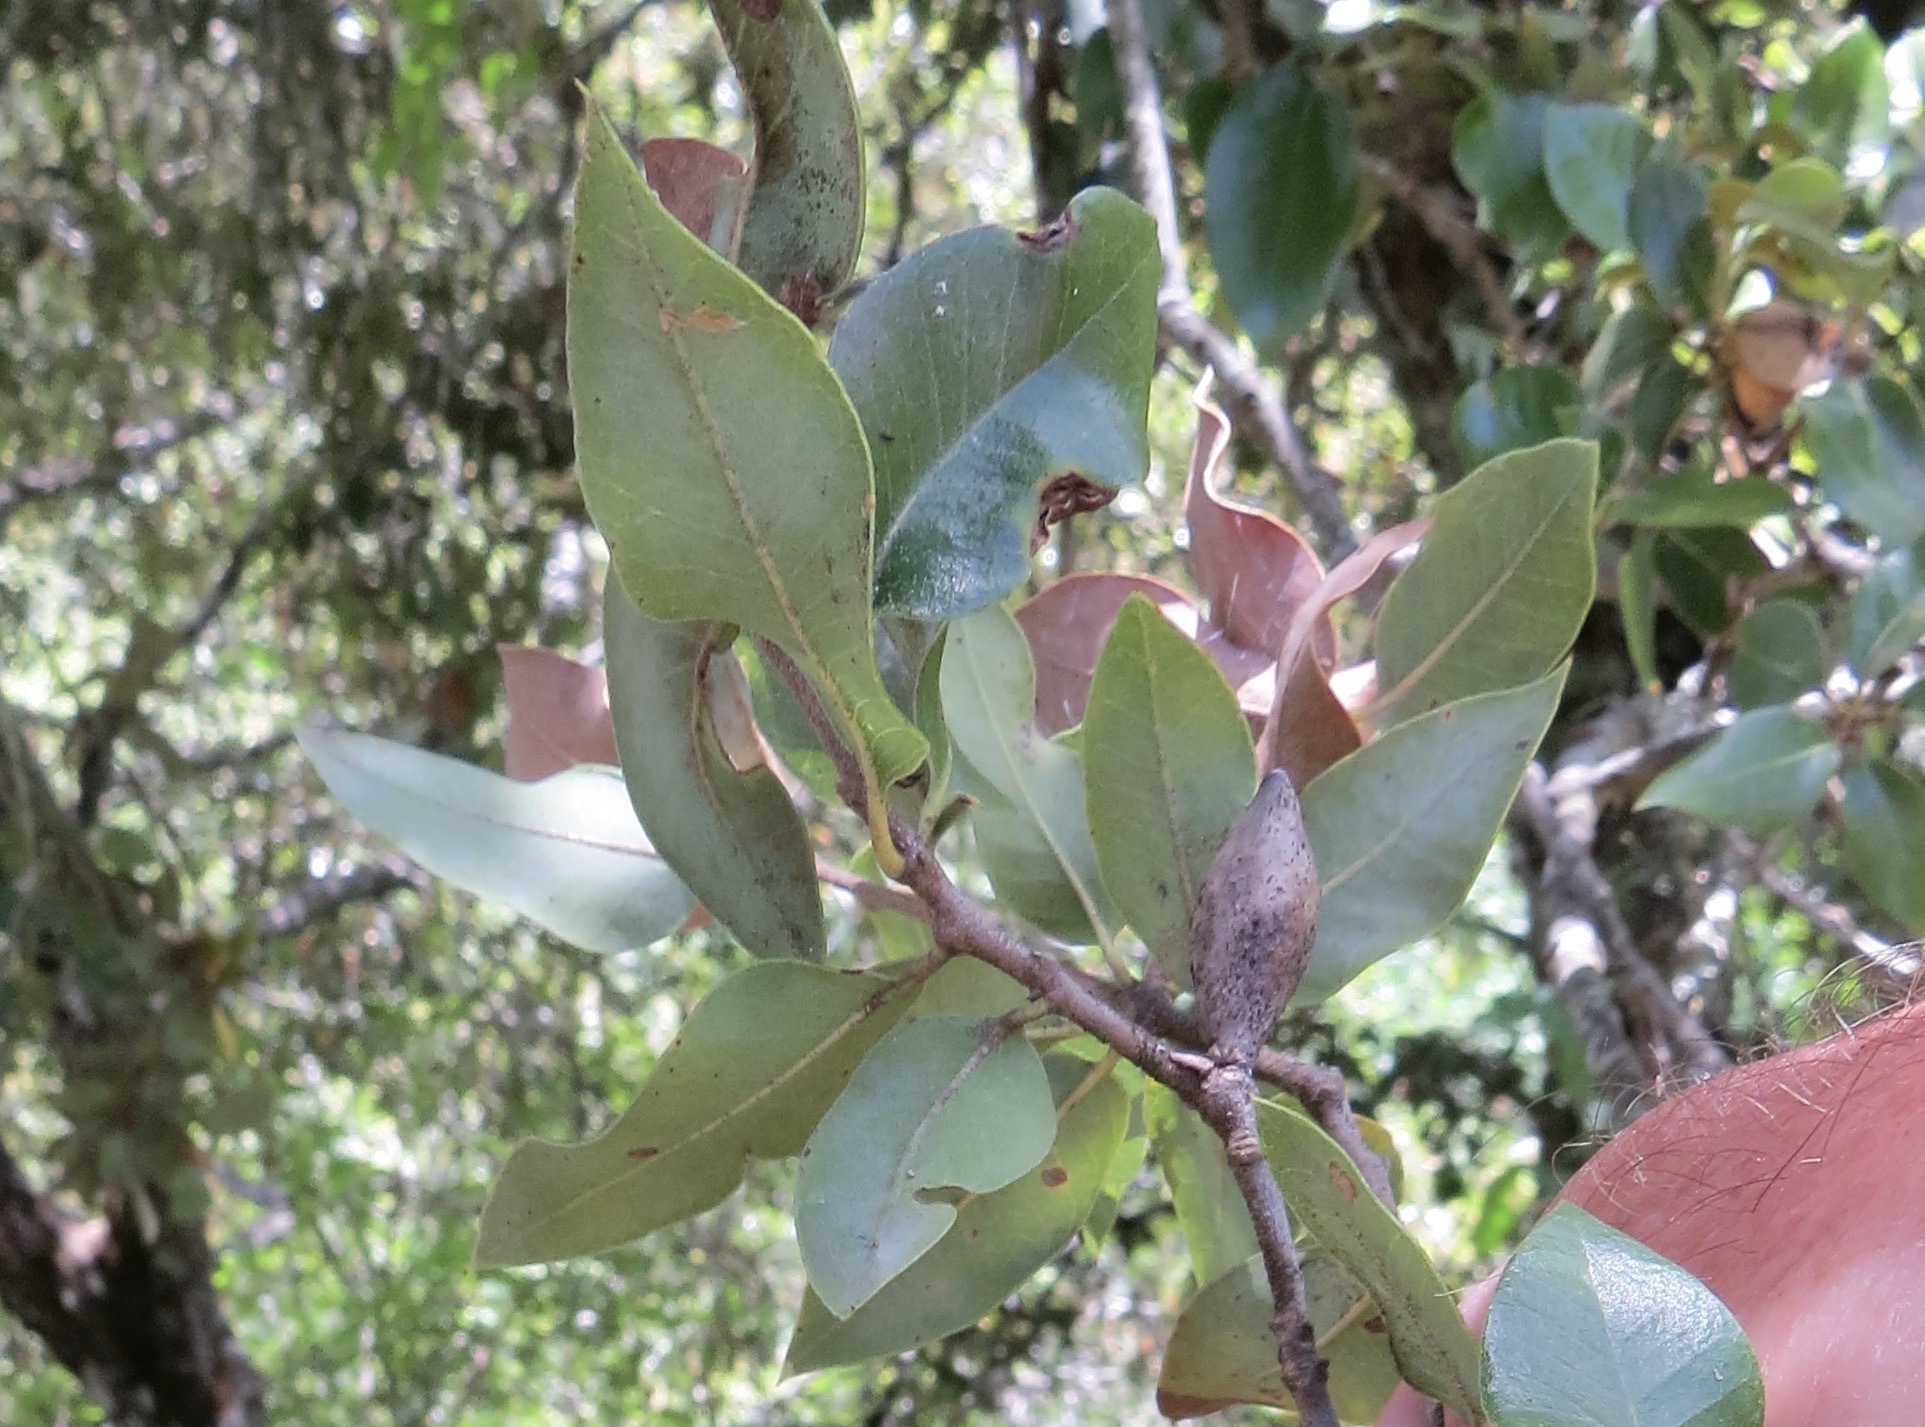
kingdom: Animalia
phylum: Arthropoda
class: Insecta
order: Hymenoptera
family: Cynipidae
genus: Heteroecus
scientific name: Heteroecus pacificus
